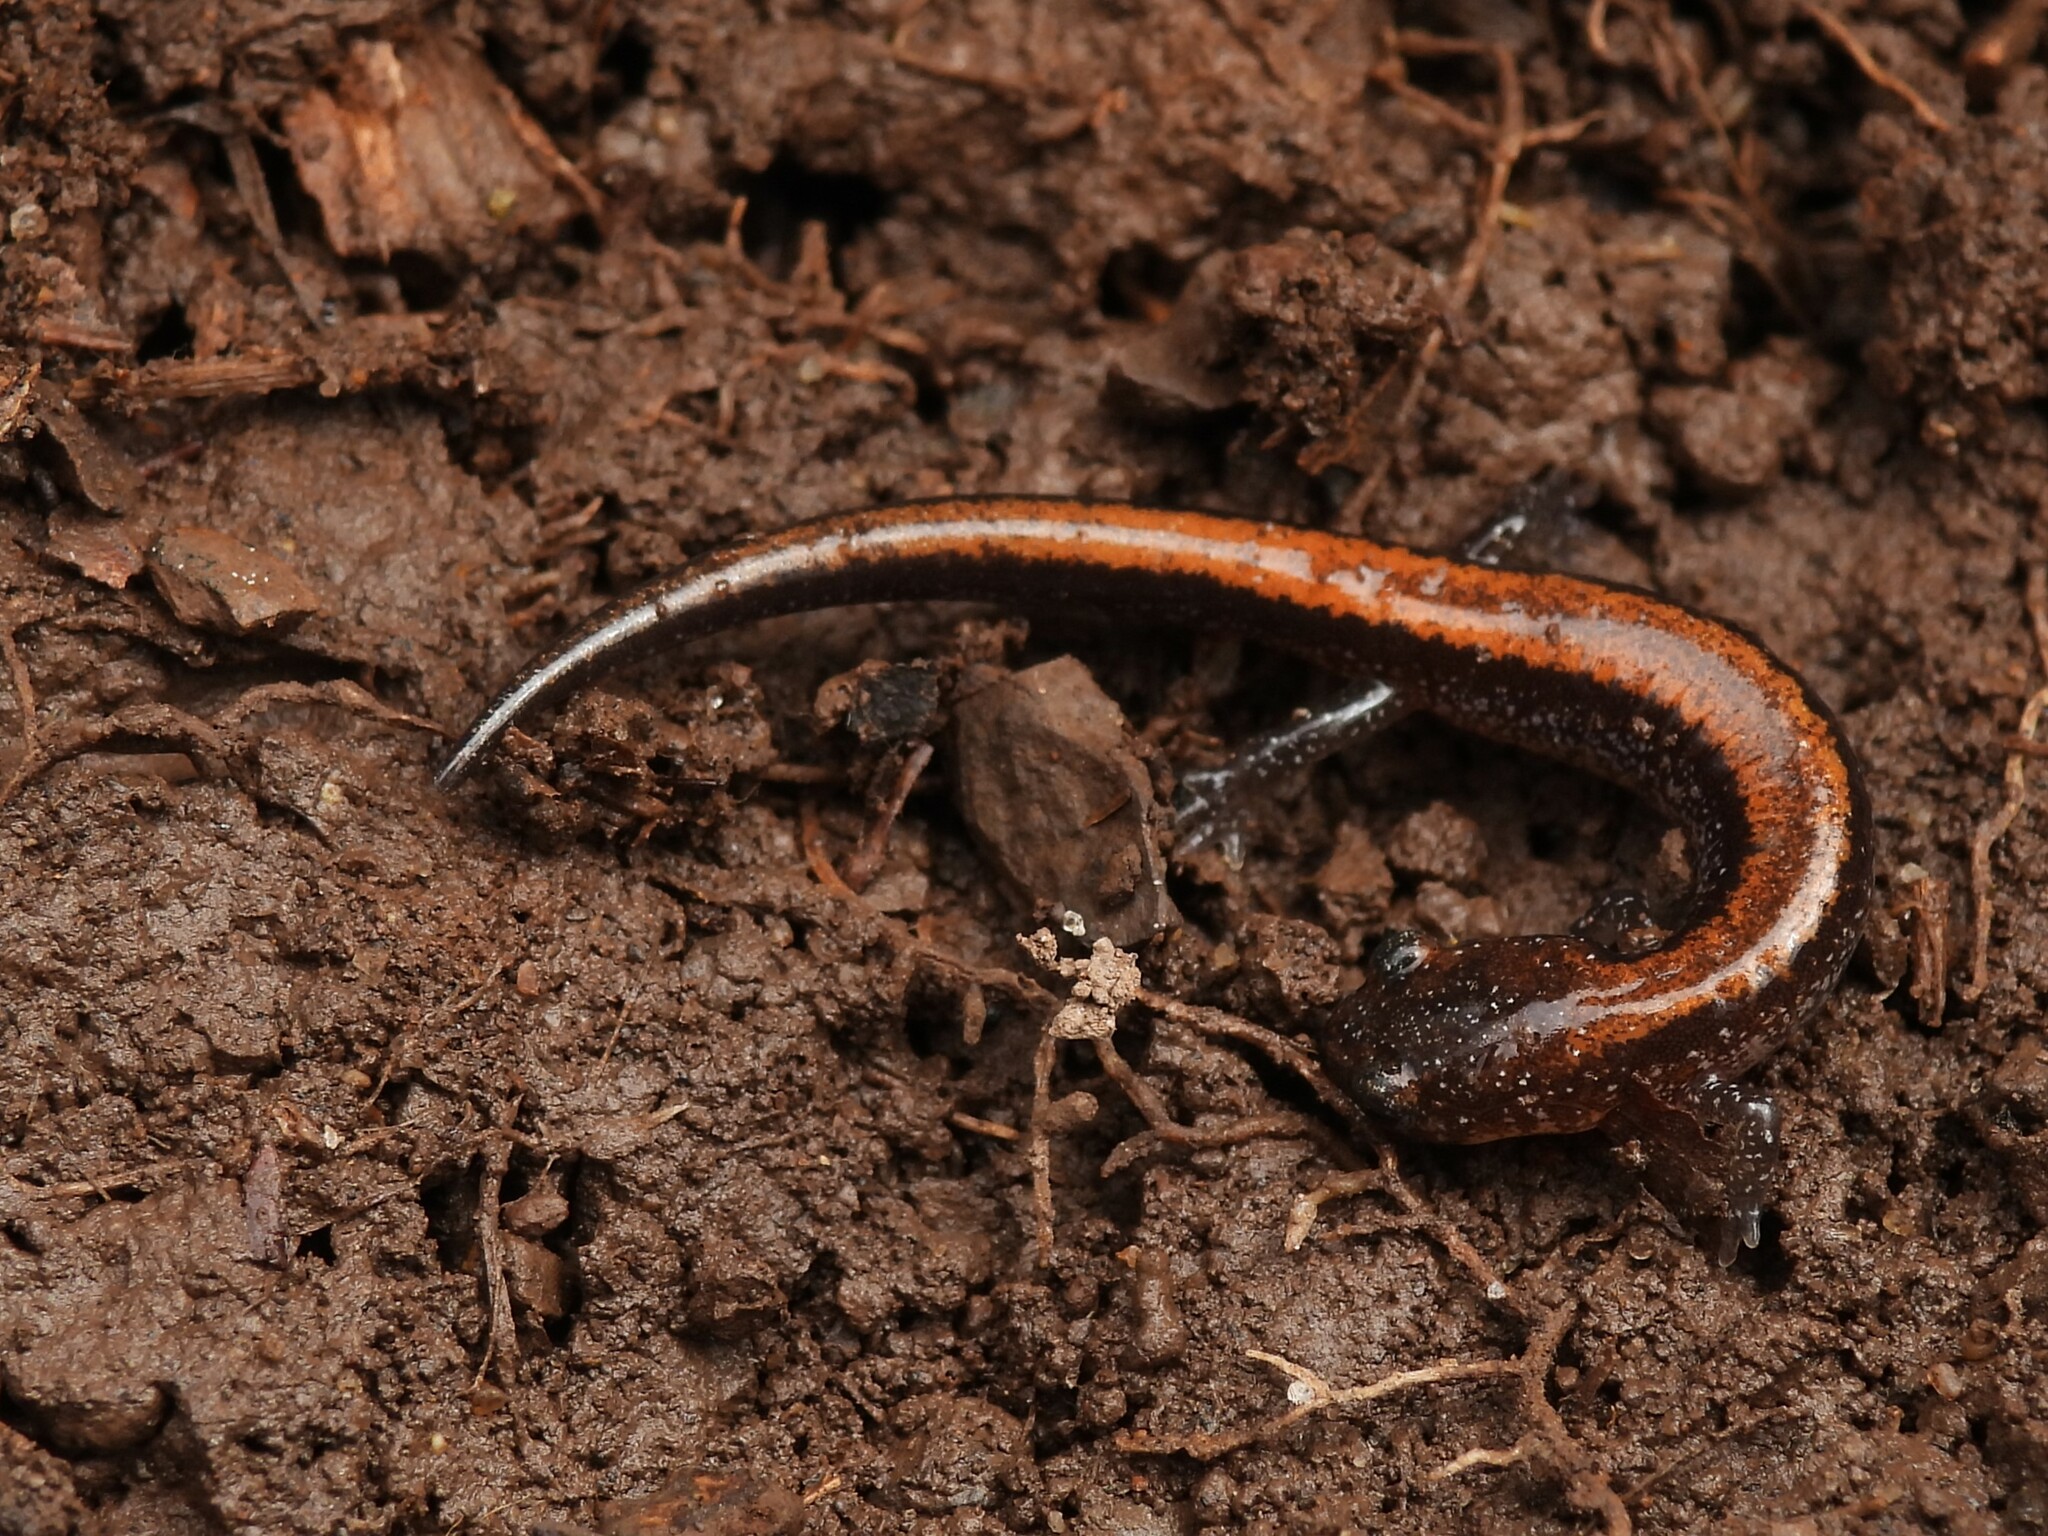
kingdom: Animalia
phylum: Chordata
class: Amphibia
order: Caudata
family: Plethodontidae
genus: Plethodon
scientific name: Plethodon cinereus
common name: Redback salamander
